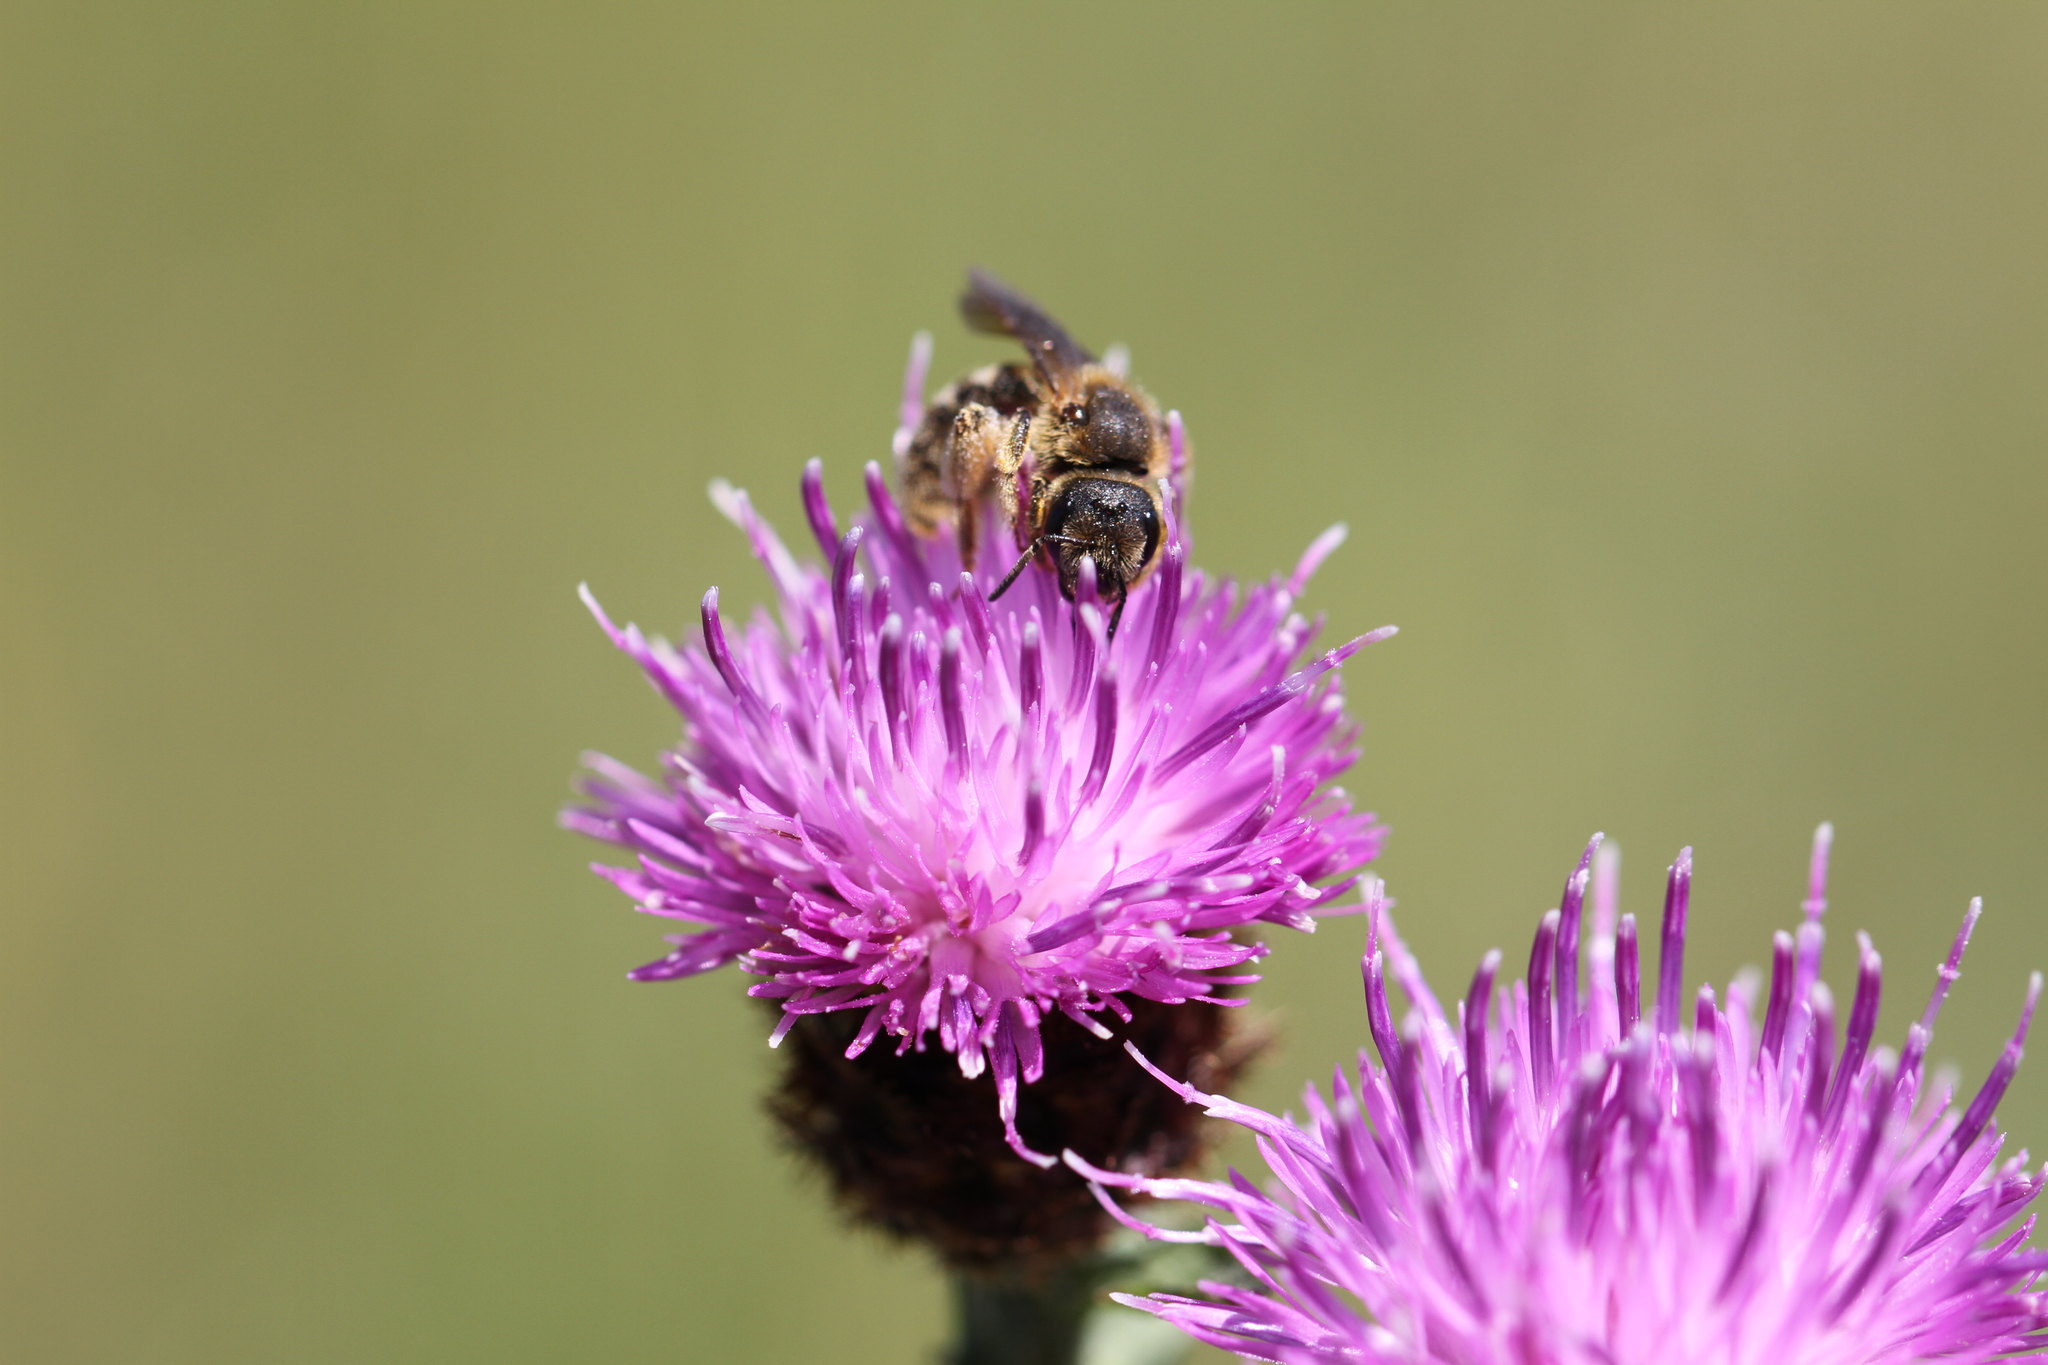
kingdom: Animalia
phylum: Arthropoda
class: Insecta
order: Hymenoptera
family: Halictidae
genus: Halictus
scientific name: Halictus scabiosae
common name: Great banded furrow bee
